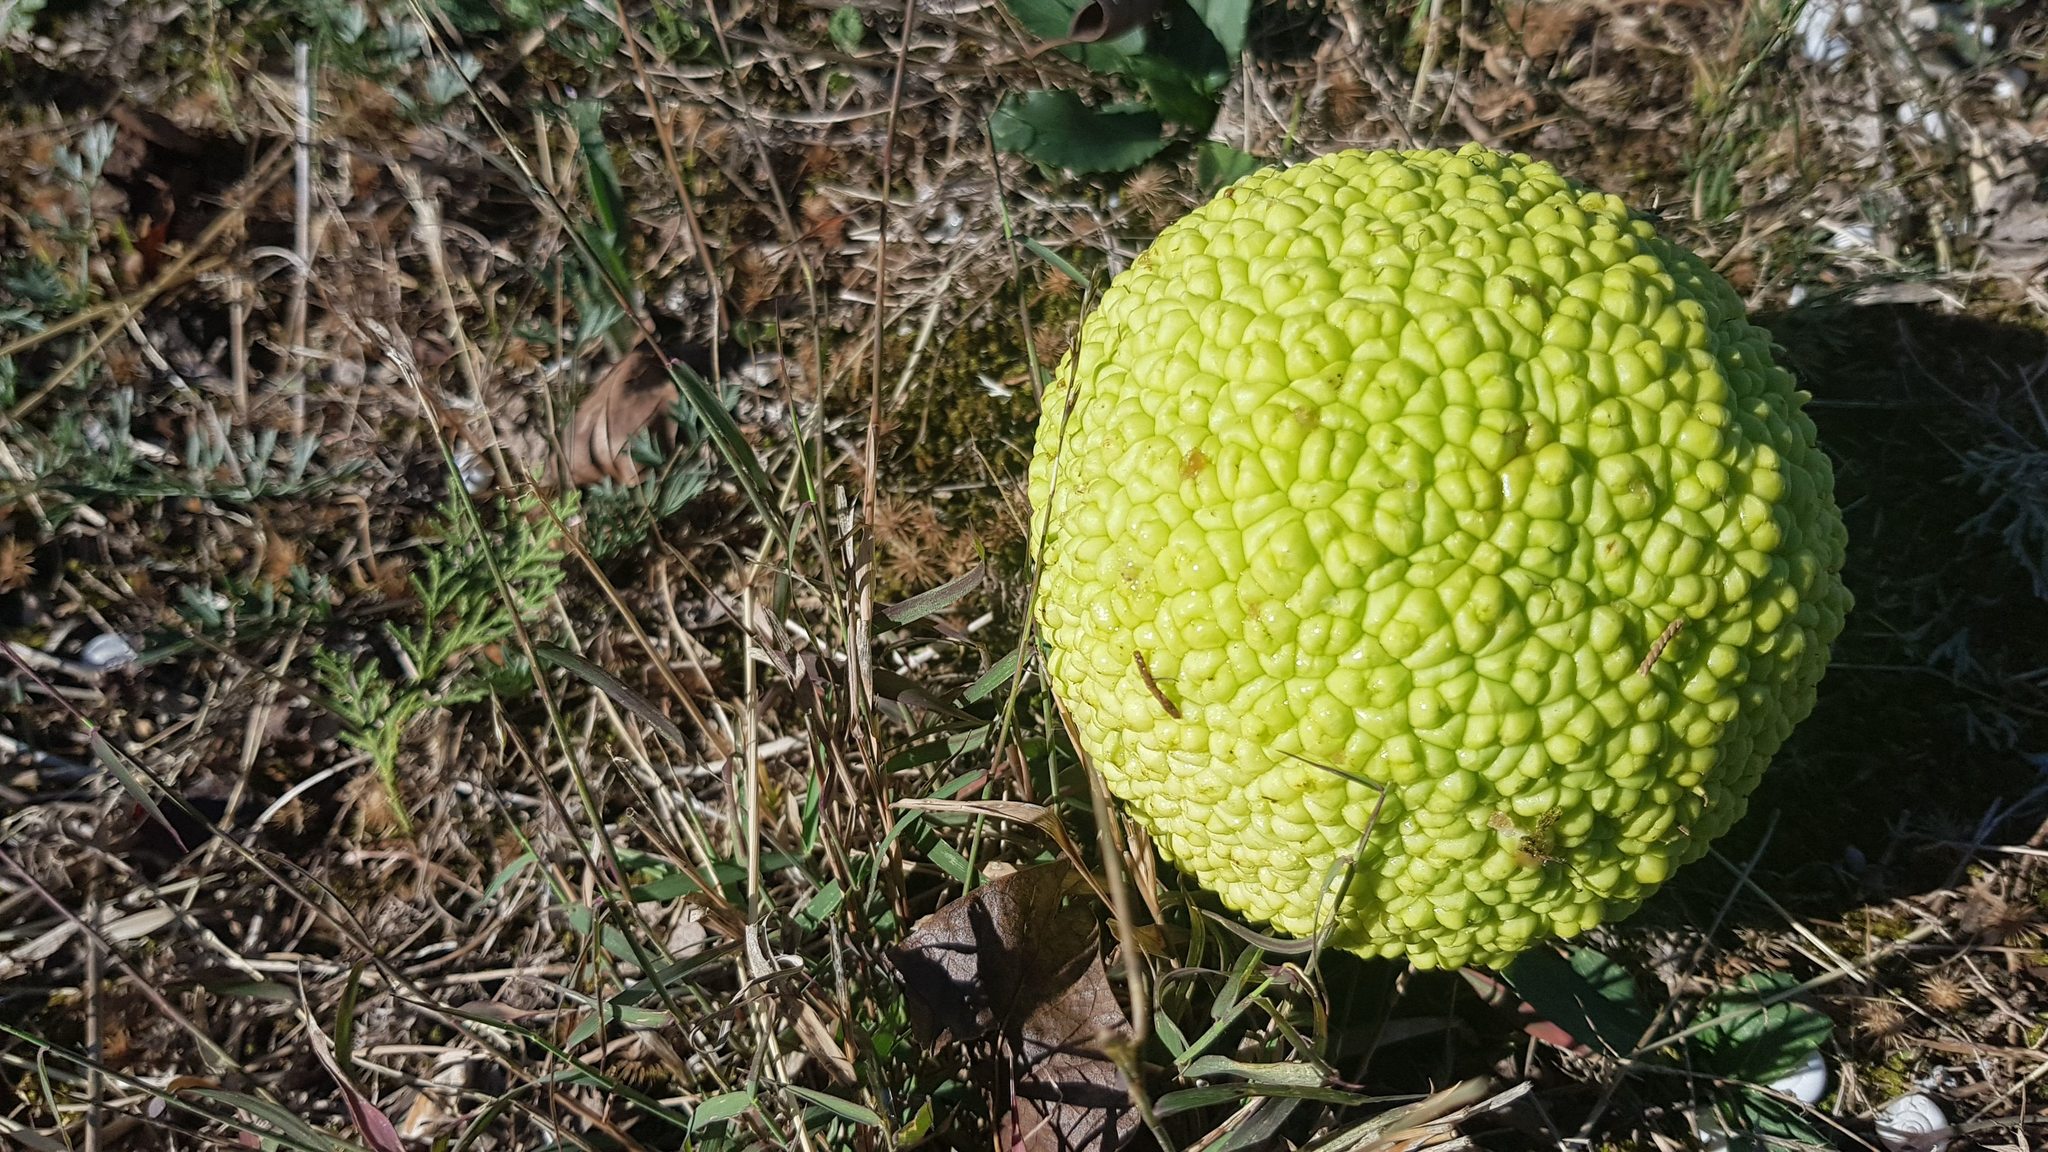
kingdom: Plantae
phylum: Tracheophyta
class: Magnoliopsida
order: Rosales
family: Moraceae
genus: Maclura
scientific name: Maclura pomifera
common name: Osage-orange
